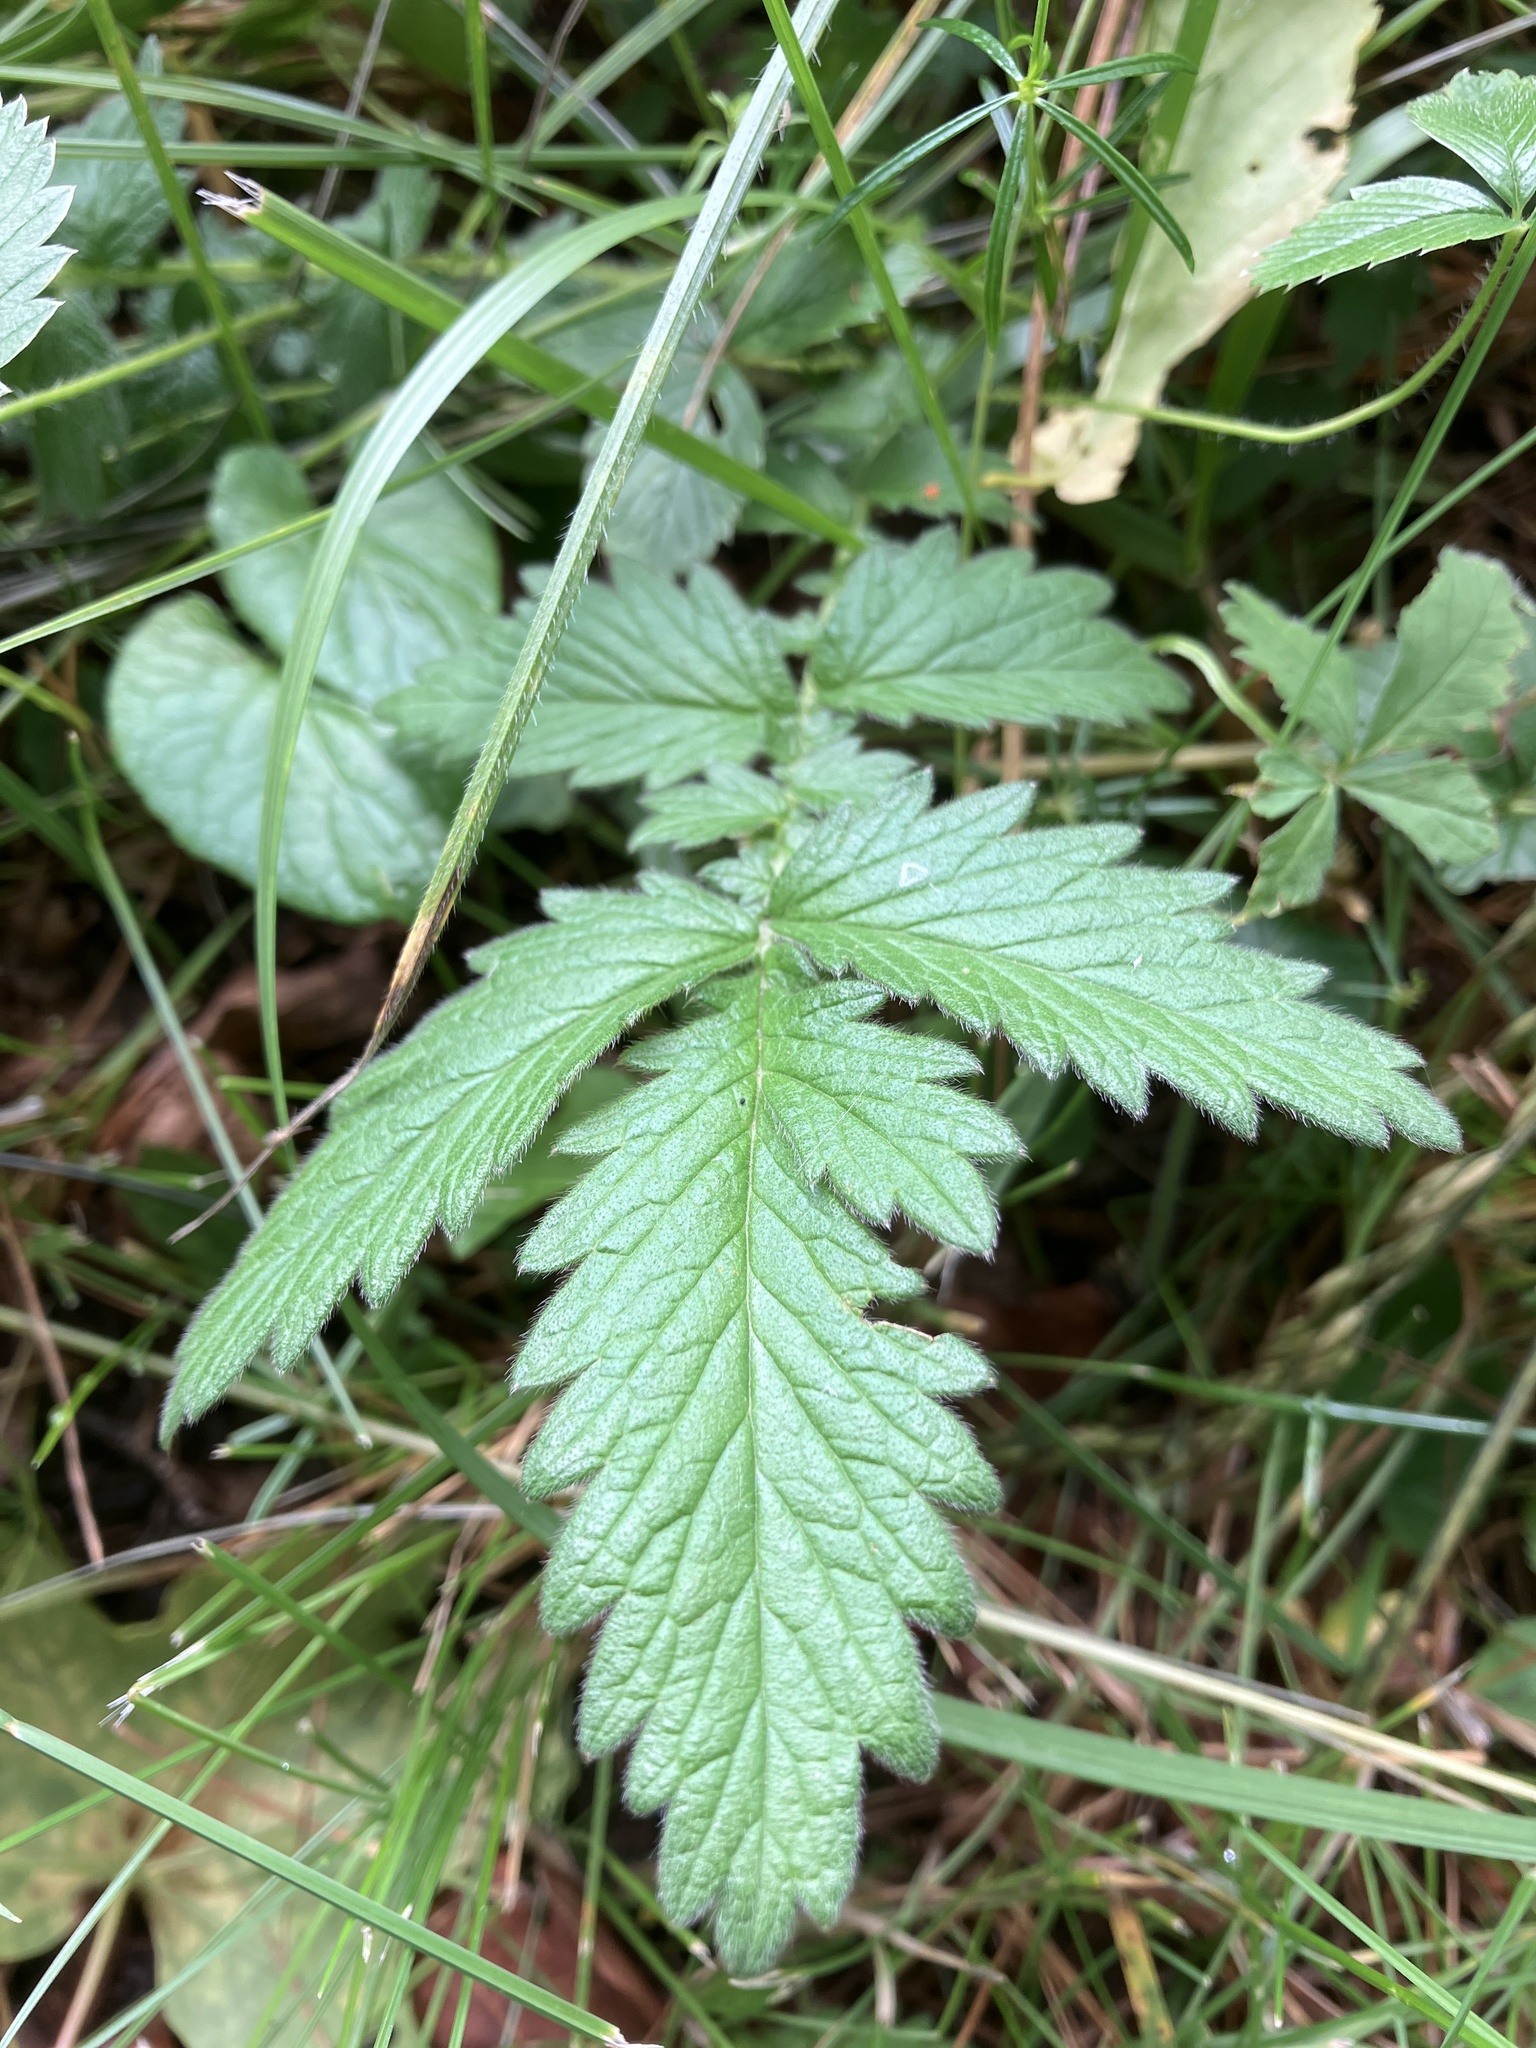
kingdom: Plantae
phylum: Tracheophyta
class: Magnoliopsida
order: Rosales
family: Rosaceae
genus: Agrimonia
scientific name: Agrimonia eupatoria
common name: Agrimony
